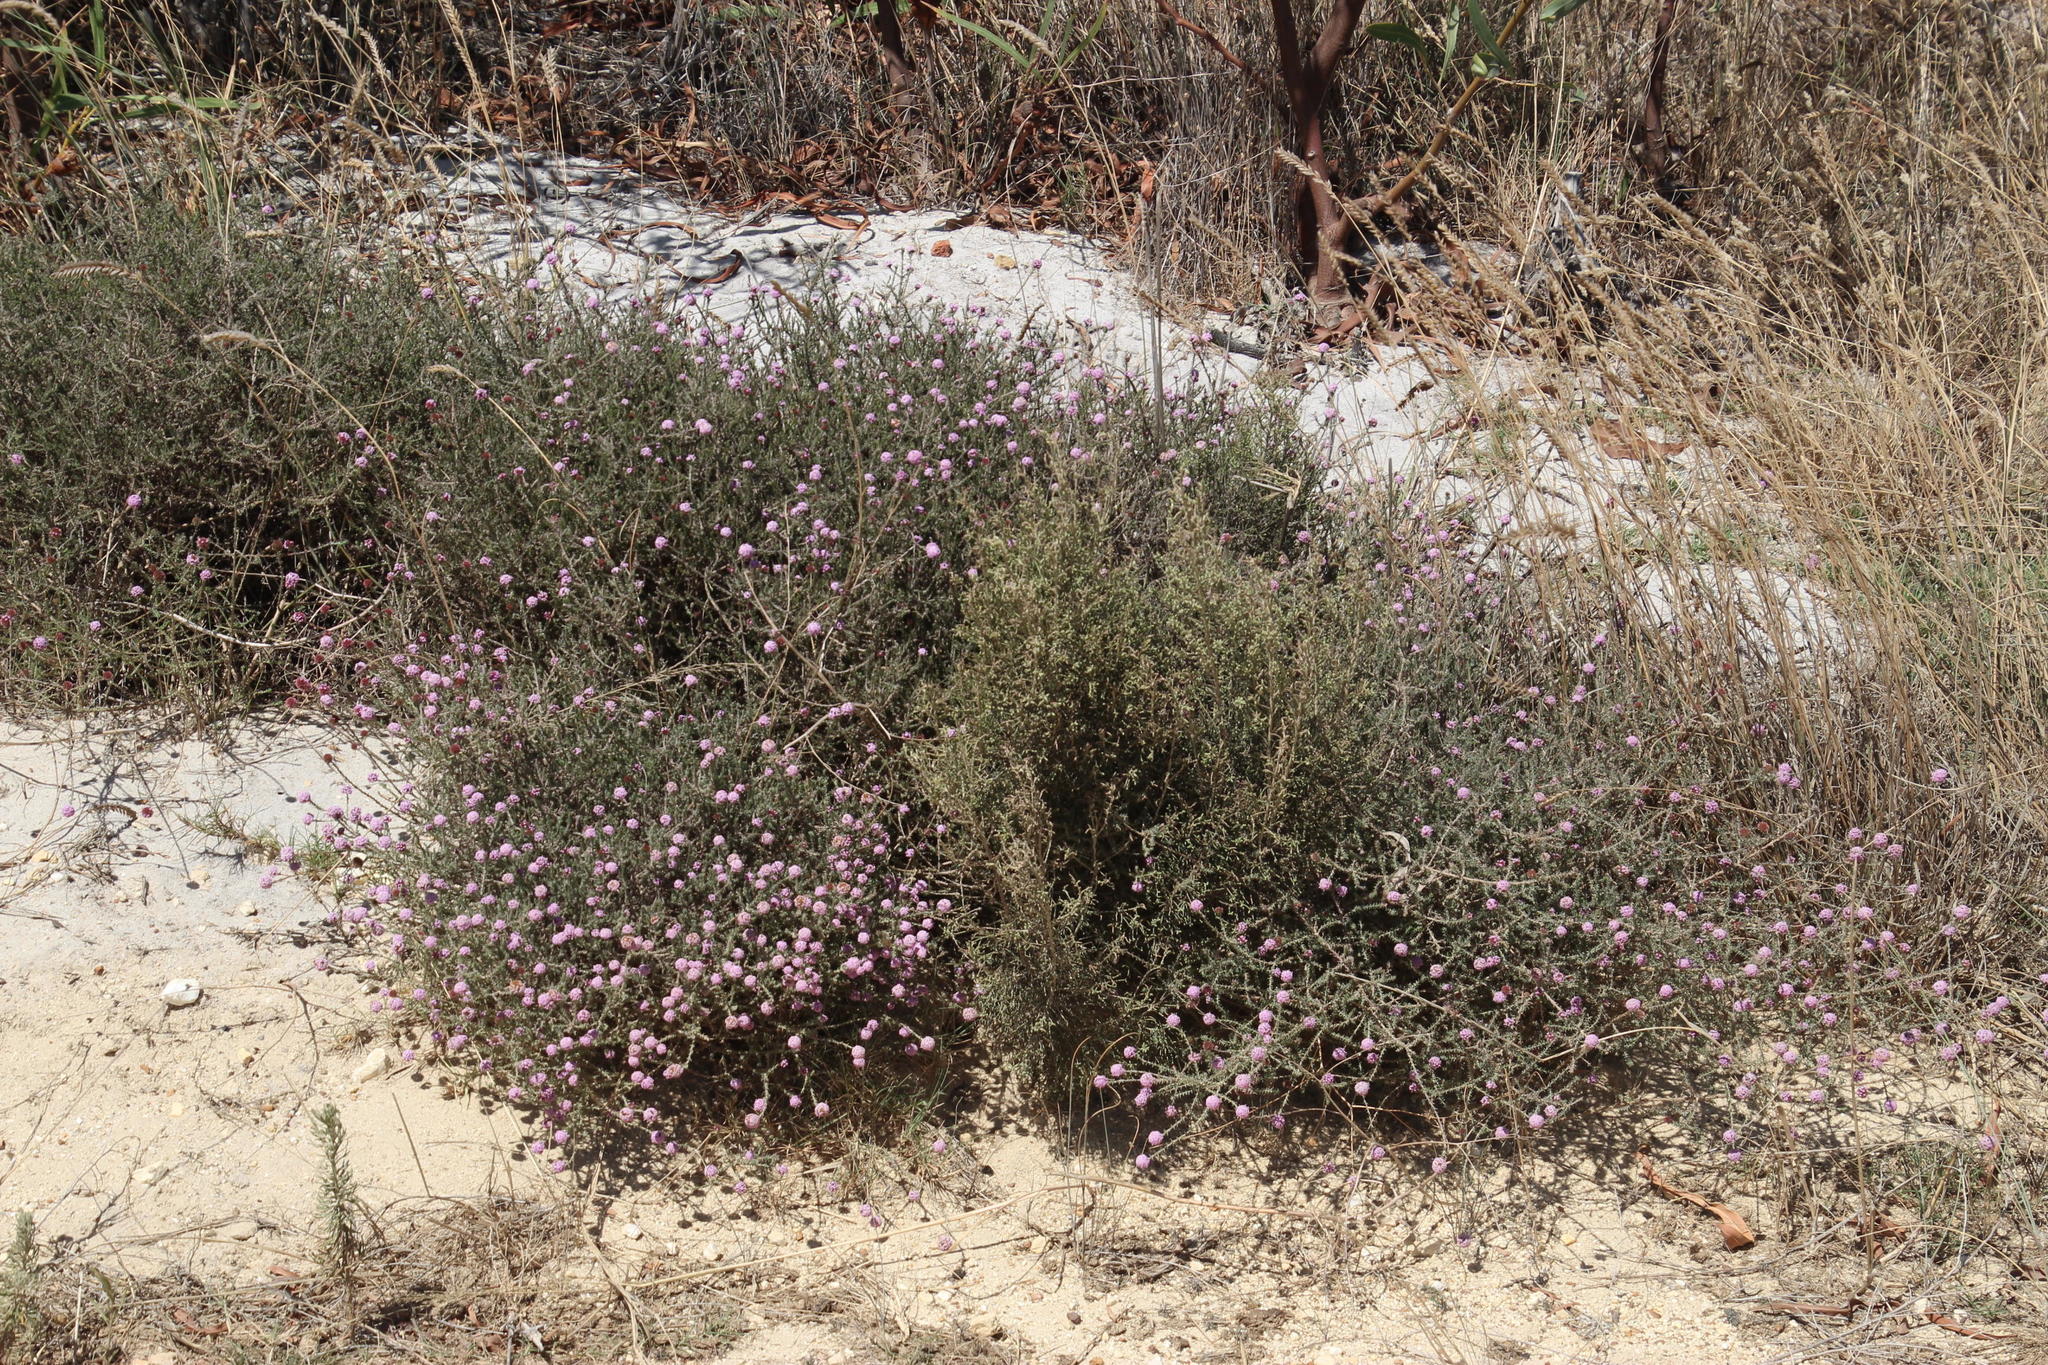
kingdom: Plantae
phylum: Tracheophyta
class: Magnoliopsida
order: Asterales
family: Asteraceae
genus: Stoebe
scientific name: Stoebe capitata
